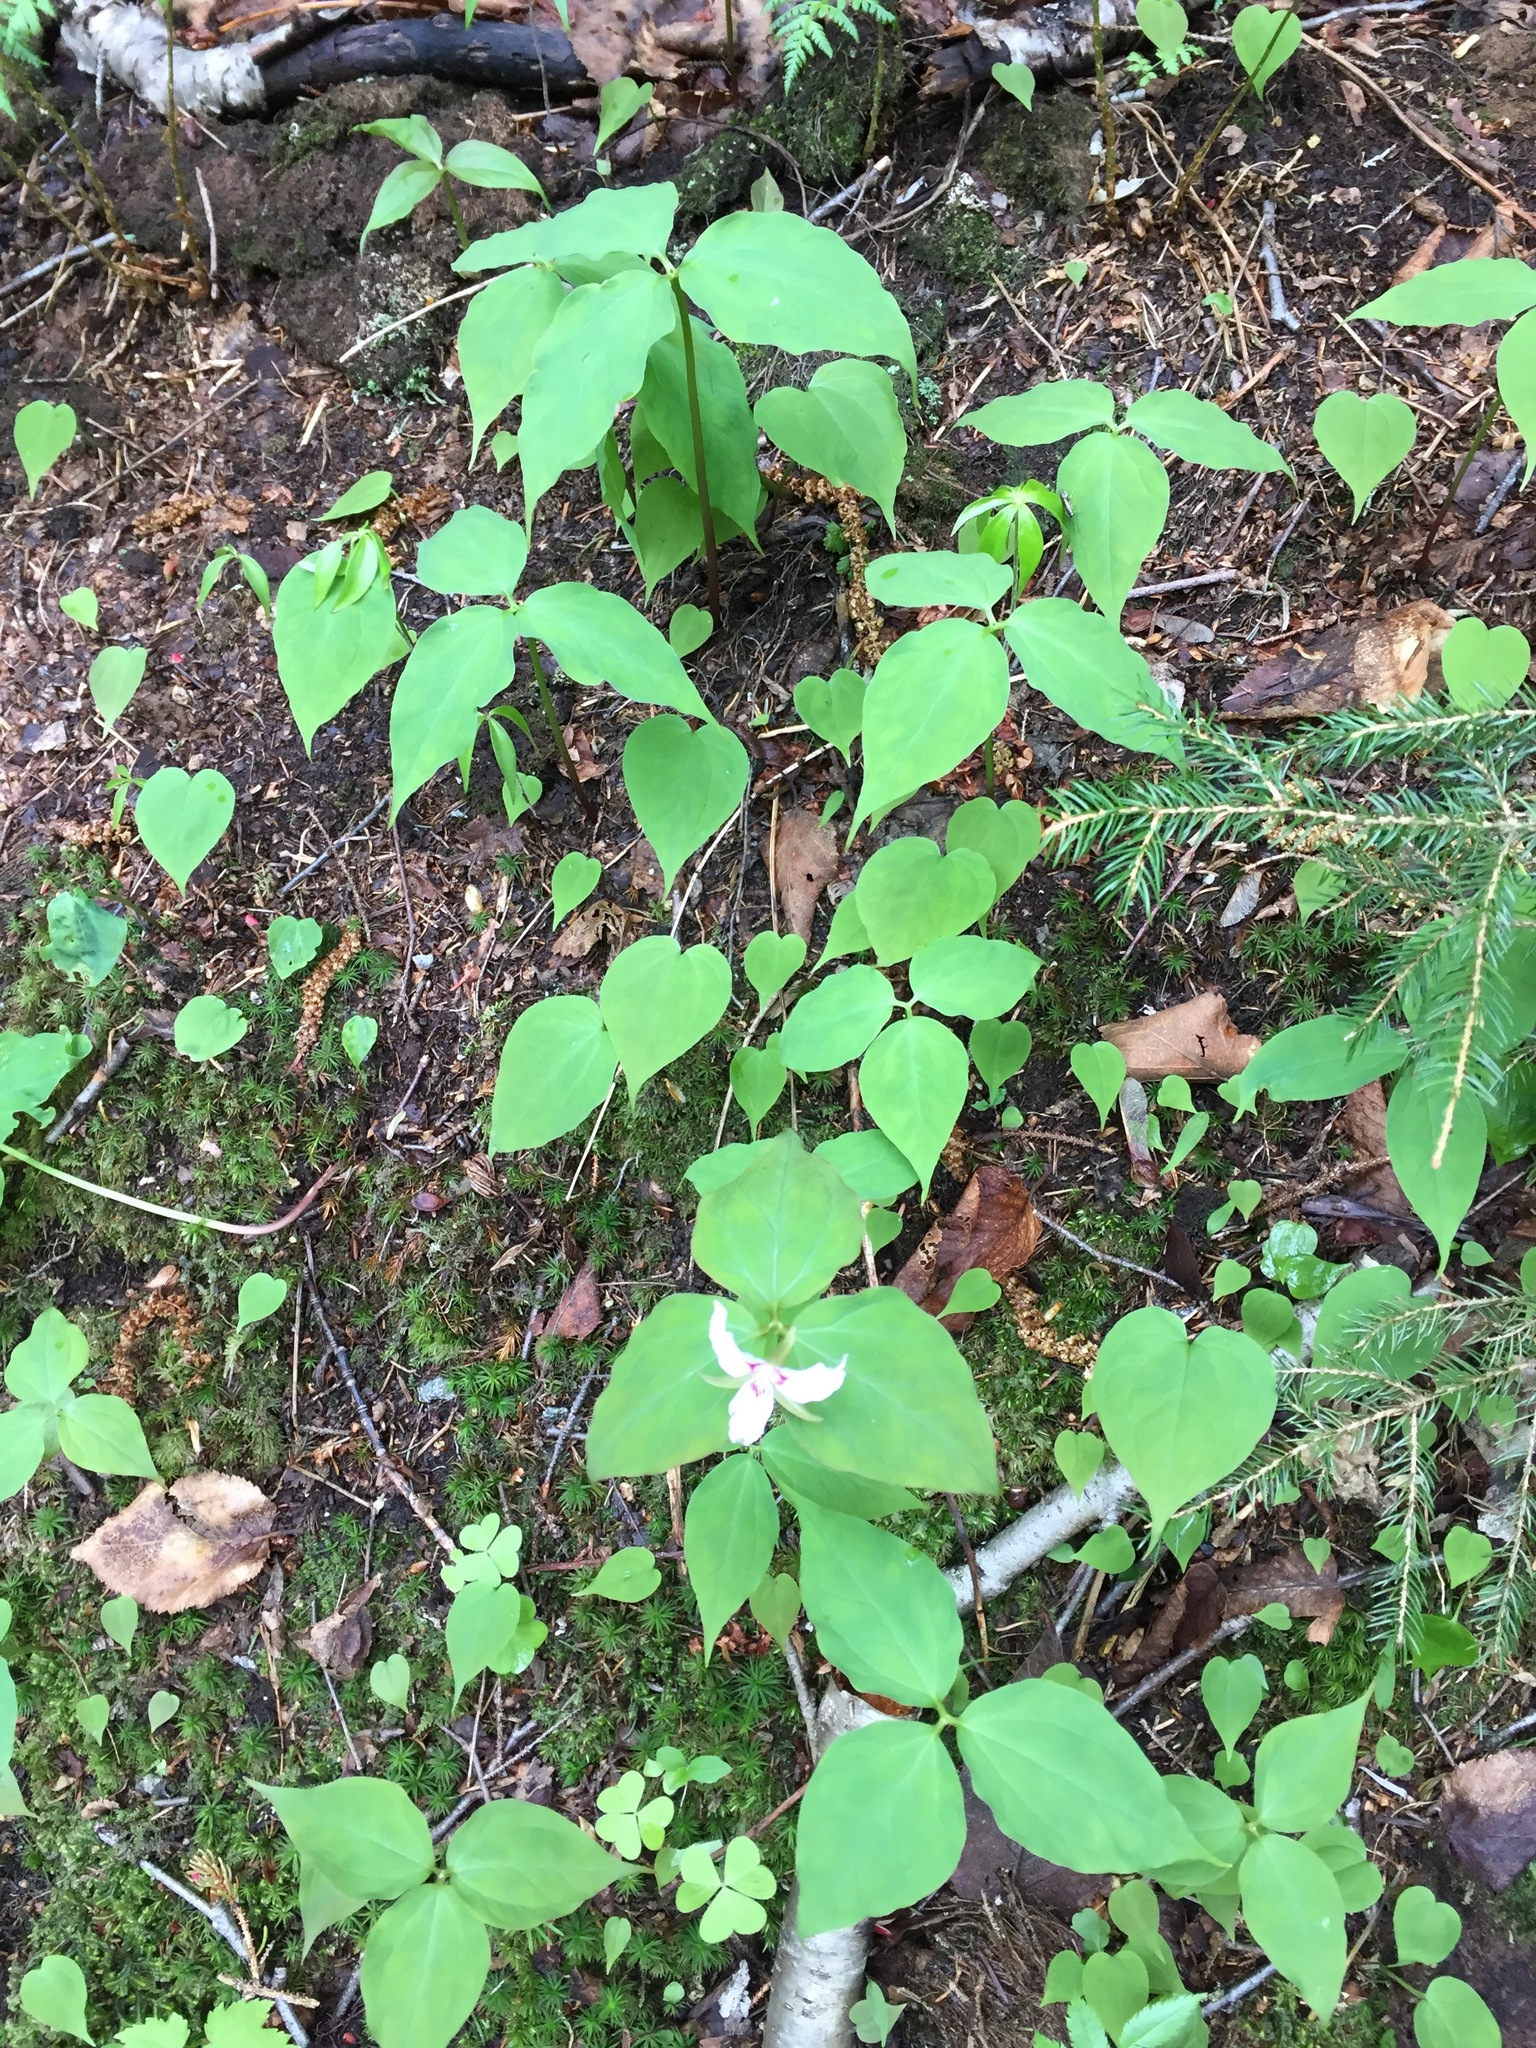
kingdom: Plantae
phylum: Tracheophyta
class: Liliopsida
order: Liliales
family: Melanthiaceae
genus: Trillium
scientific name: Trillium undulatum
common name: Paint trillium
